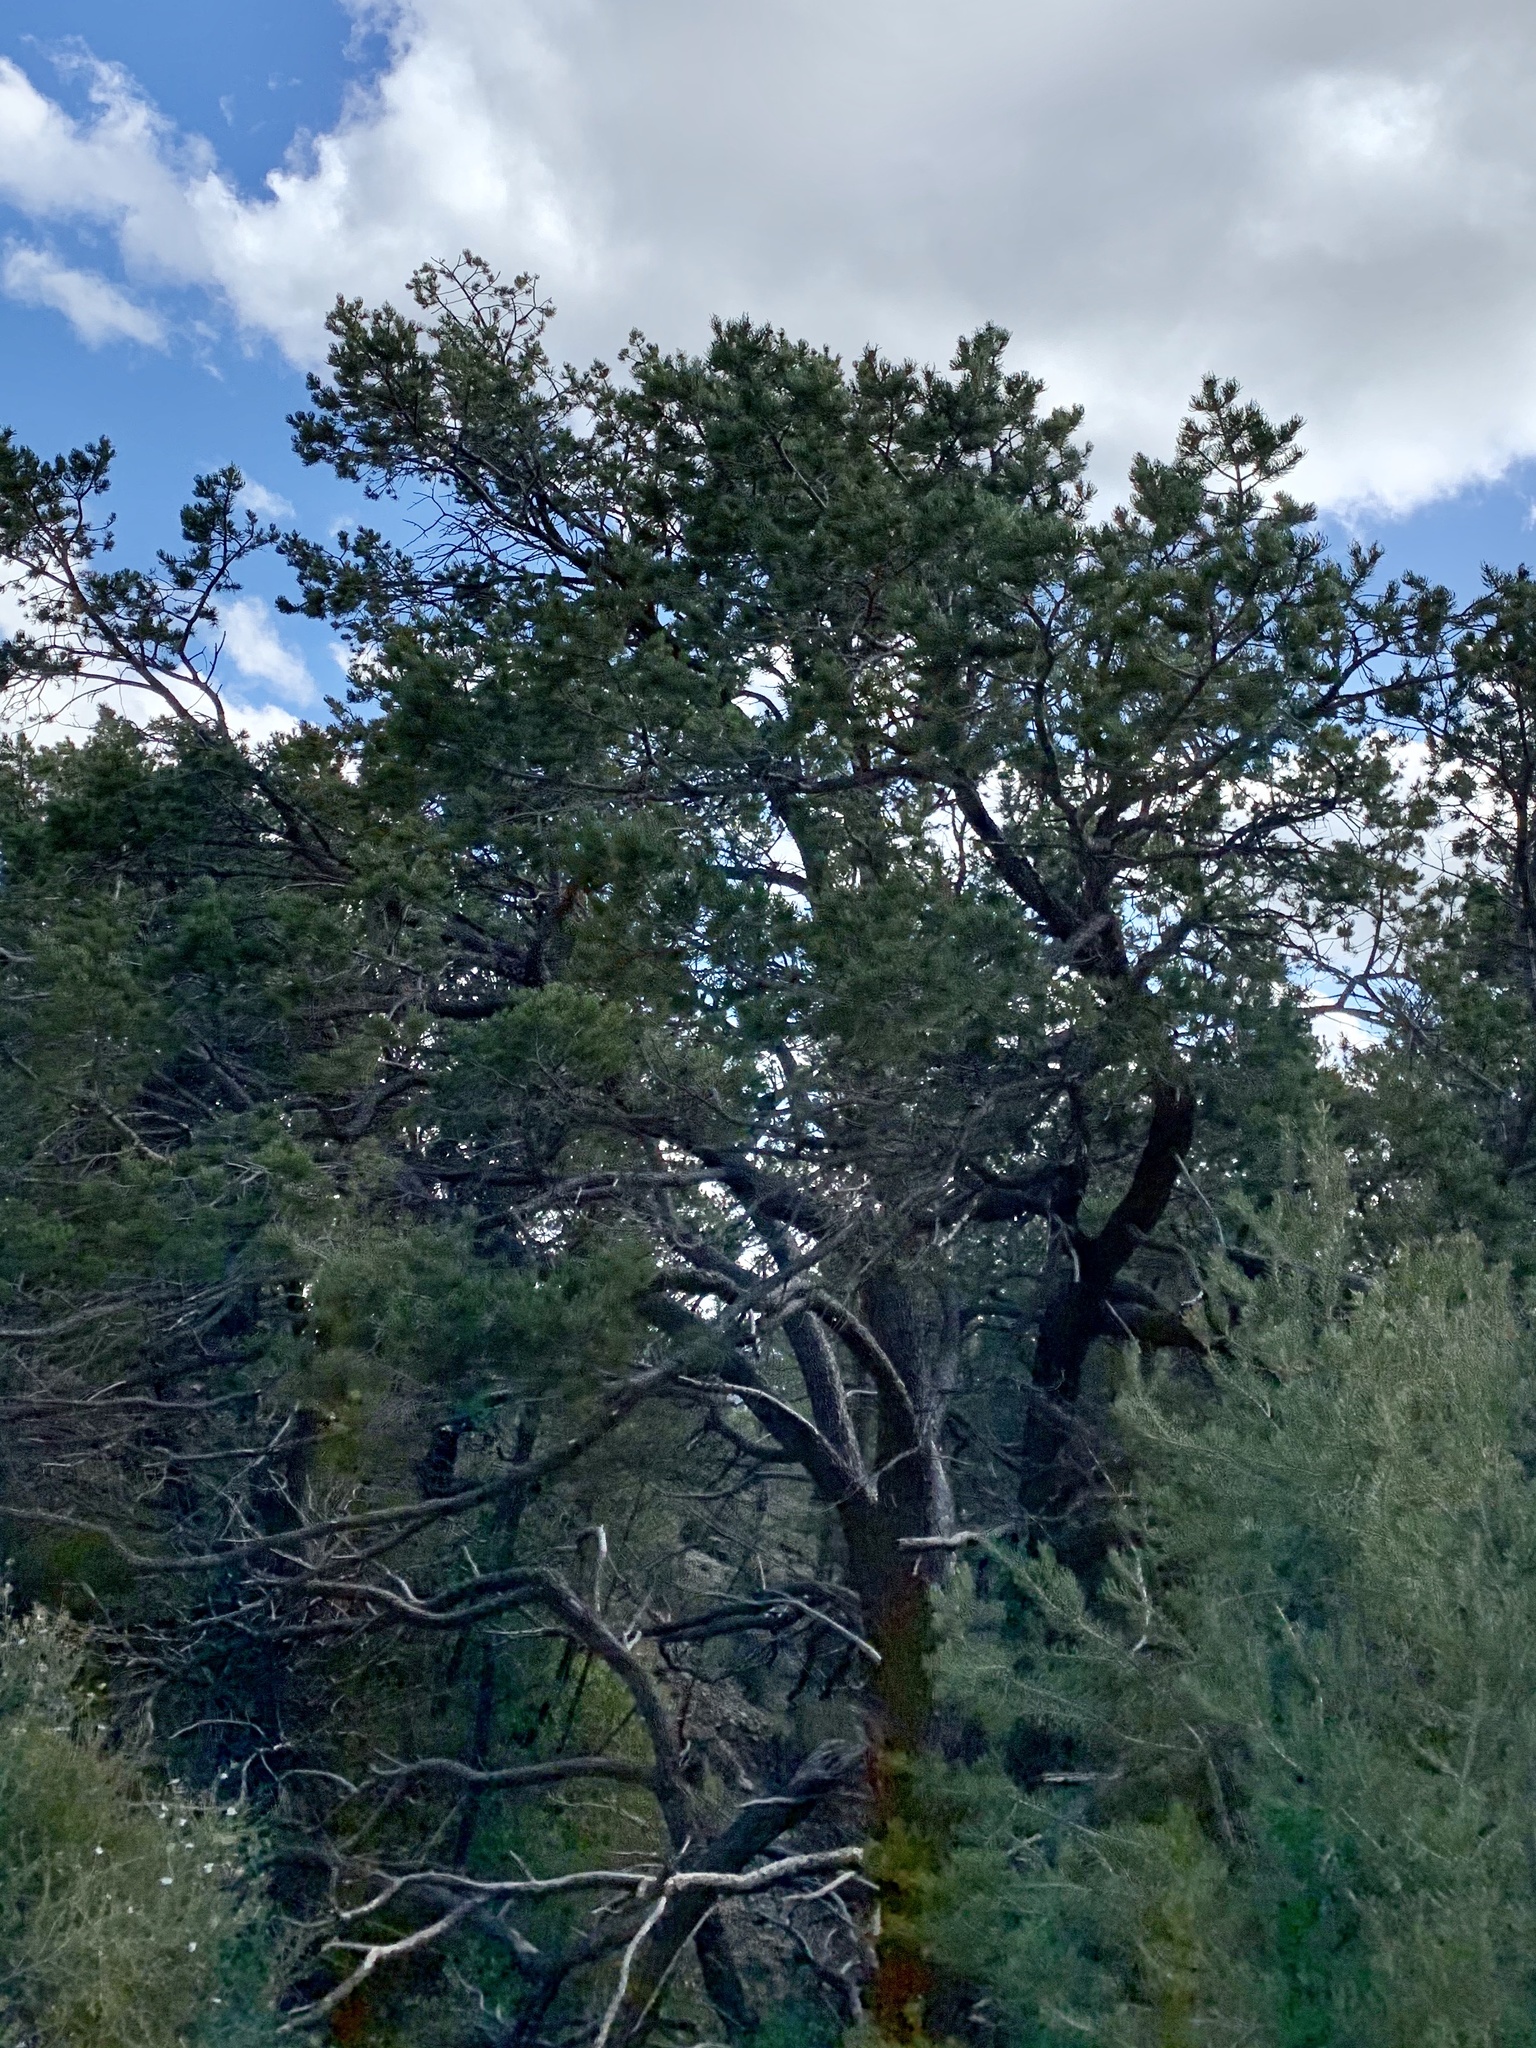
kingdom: Plantae
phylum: Tracheophyta
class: Pinopsida
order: Pinales
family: Pinaceae
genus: Pinus
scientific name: Pinus edulis
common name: Colorado pinyon
